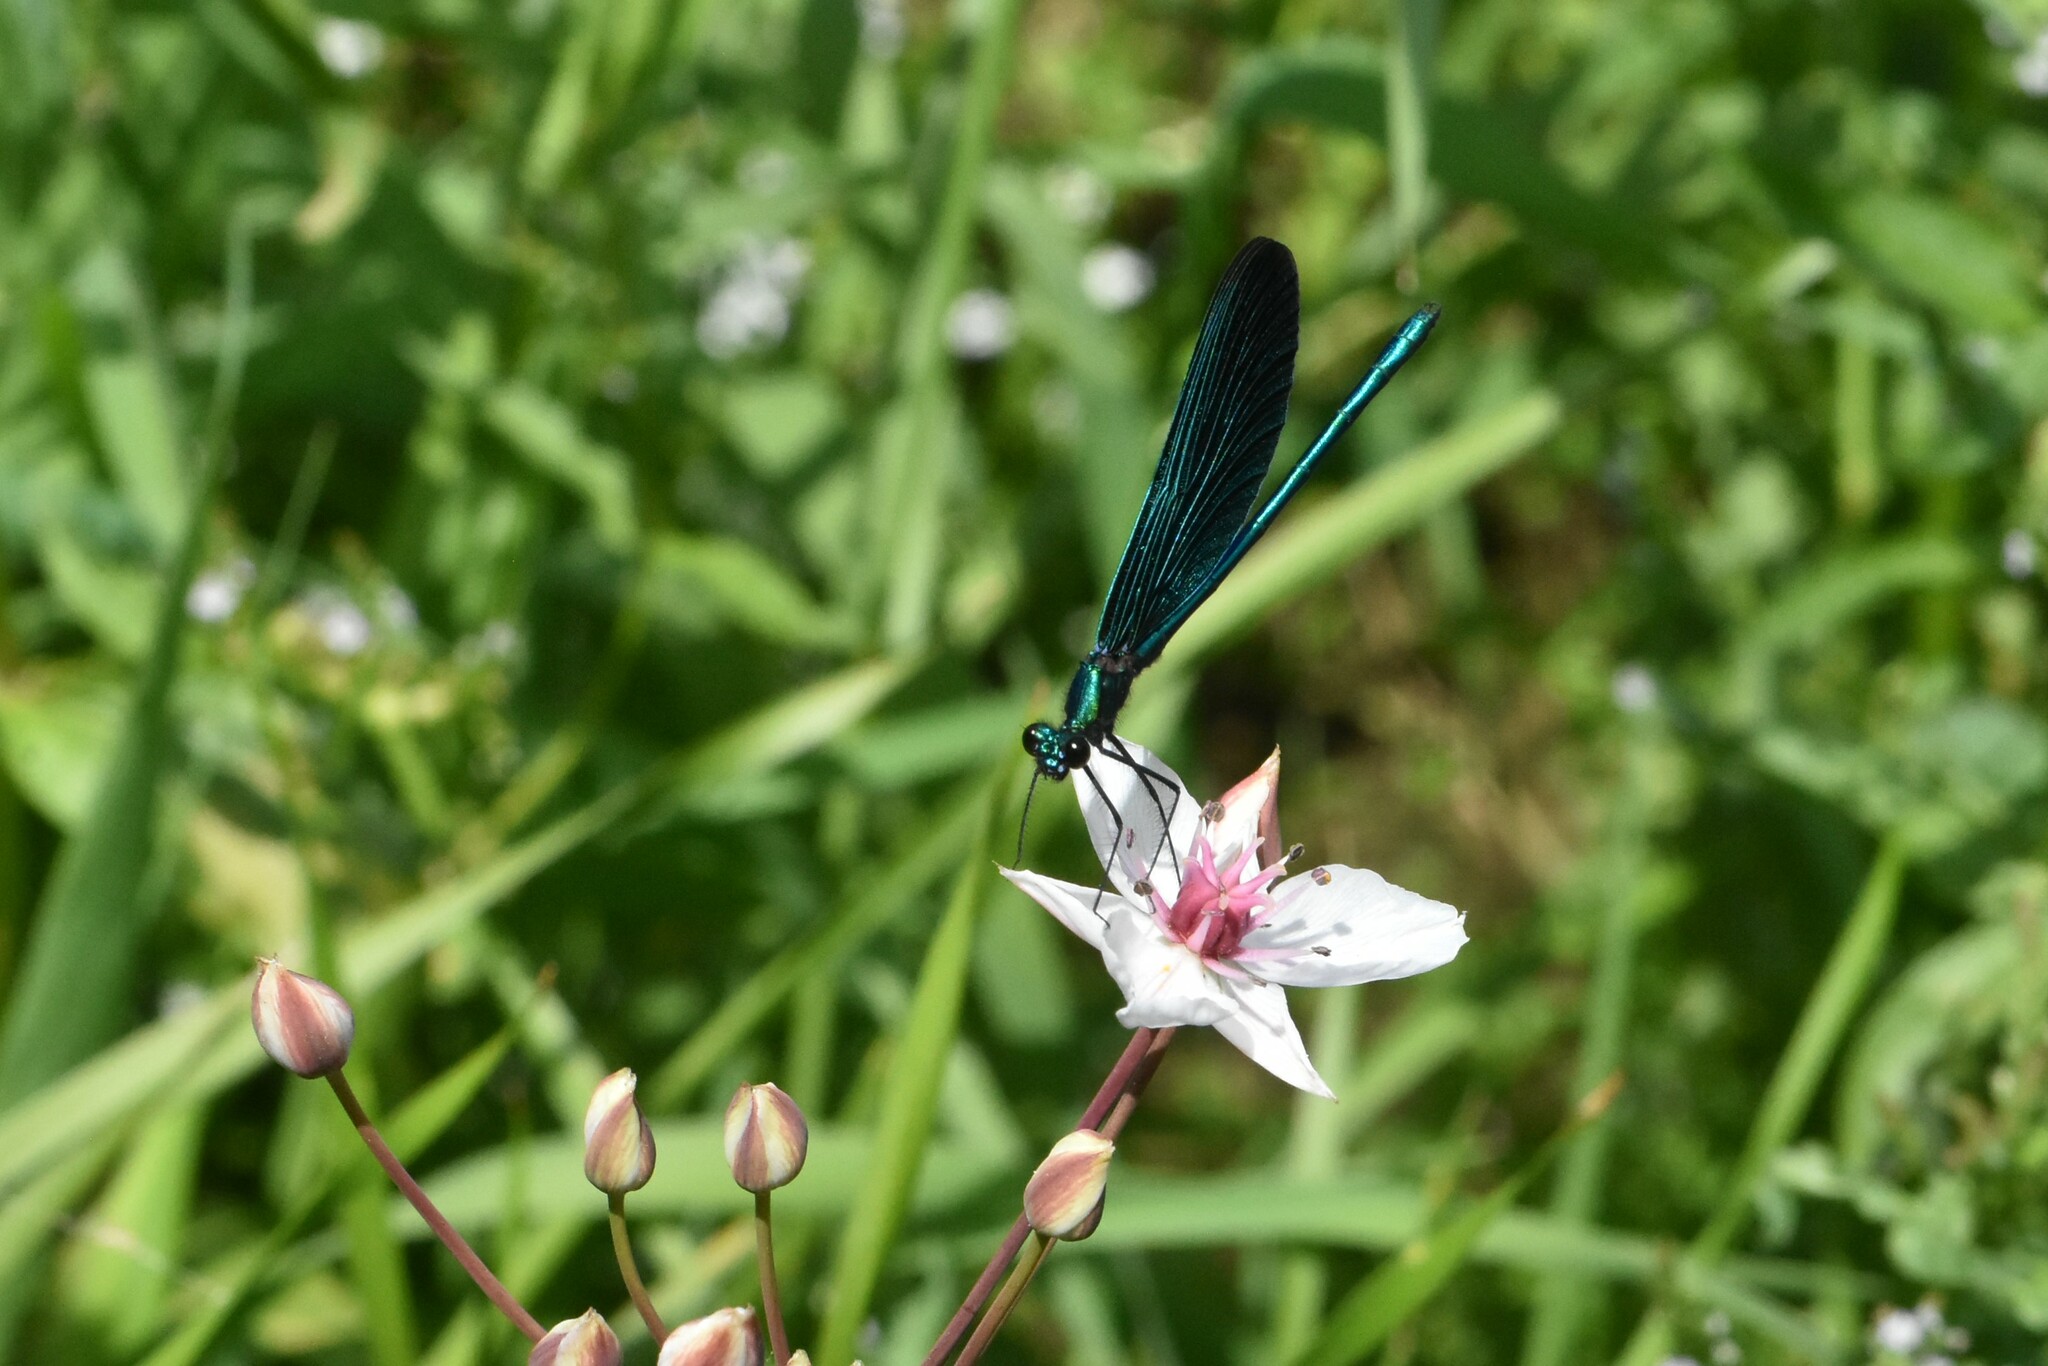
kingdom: Animalia
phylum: Arthropoda
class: Insecta
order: Odonata
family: Calopterygidae
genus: Calopteryx
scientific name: Calopteryx virgo
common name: Beautiful demoiselle
